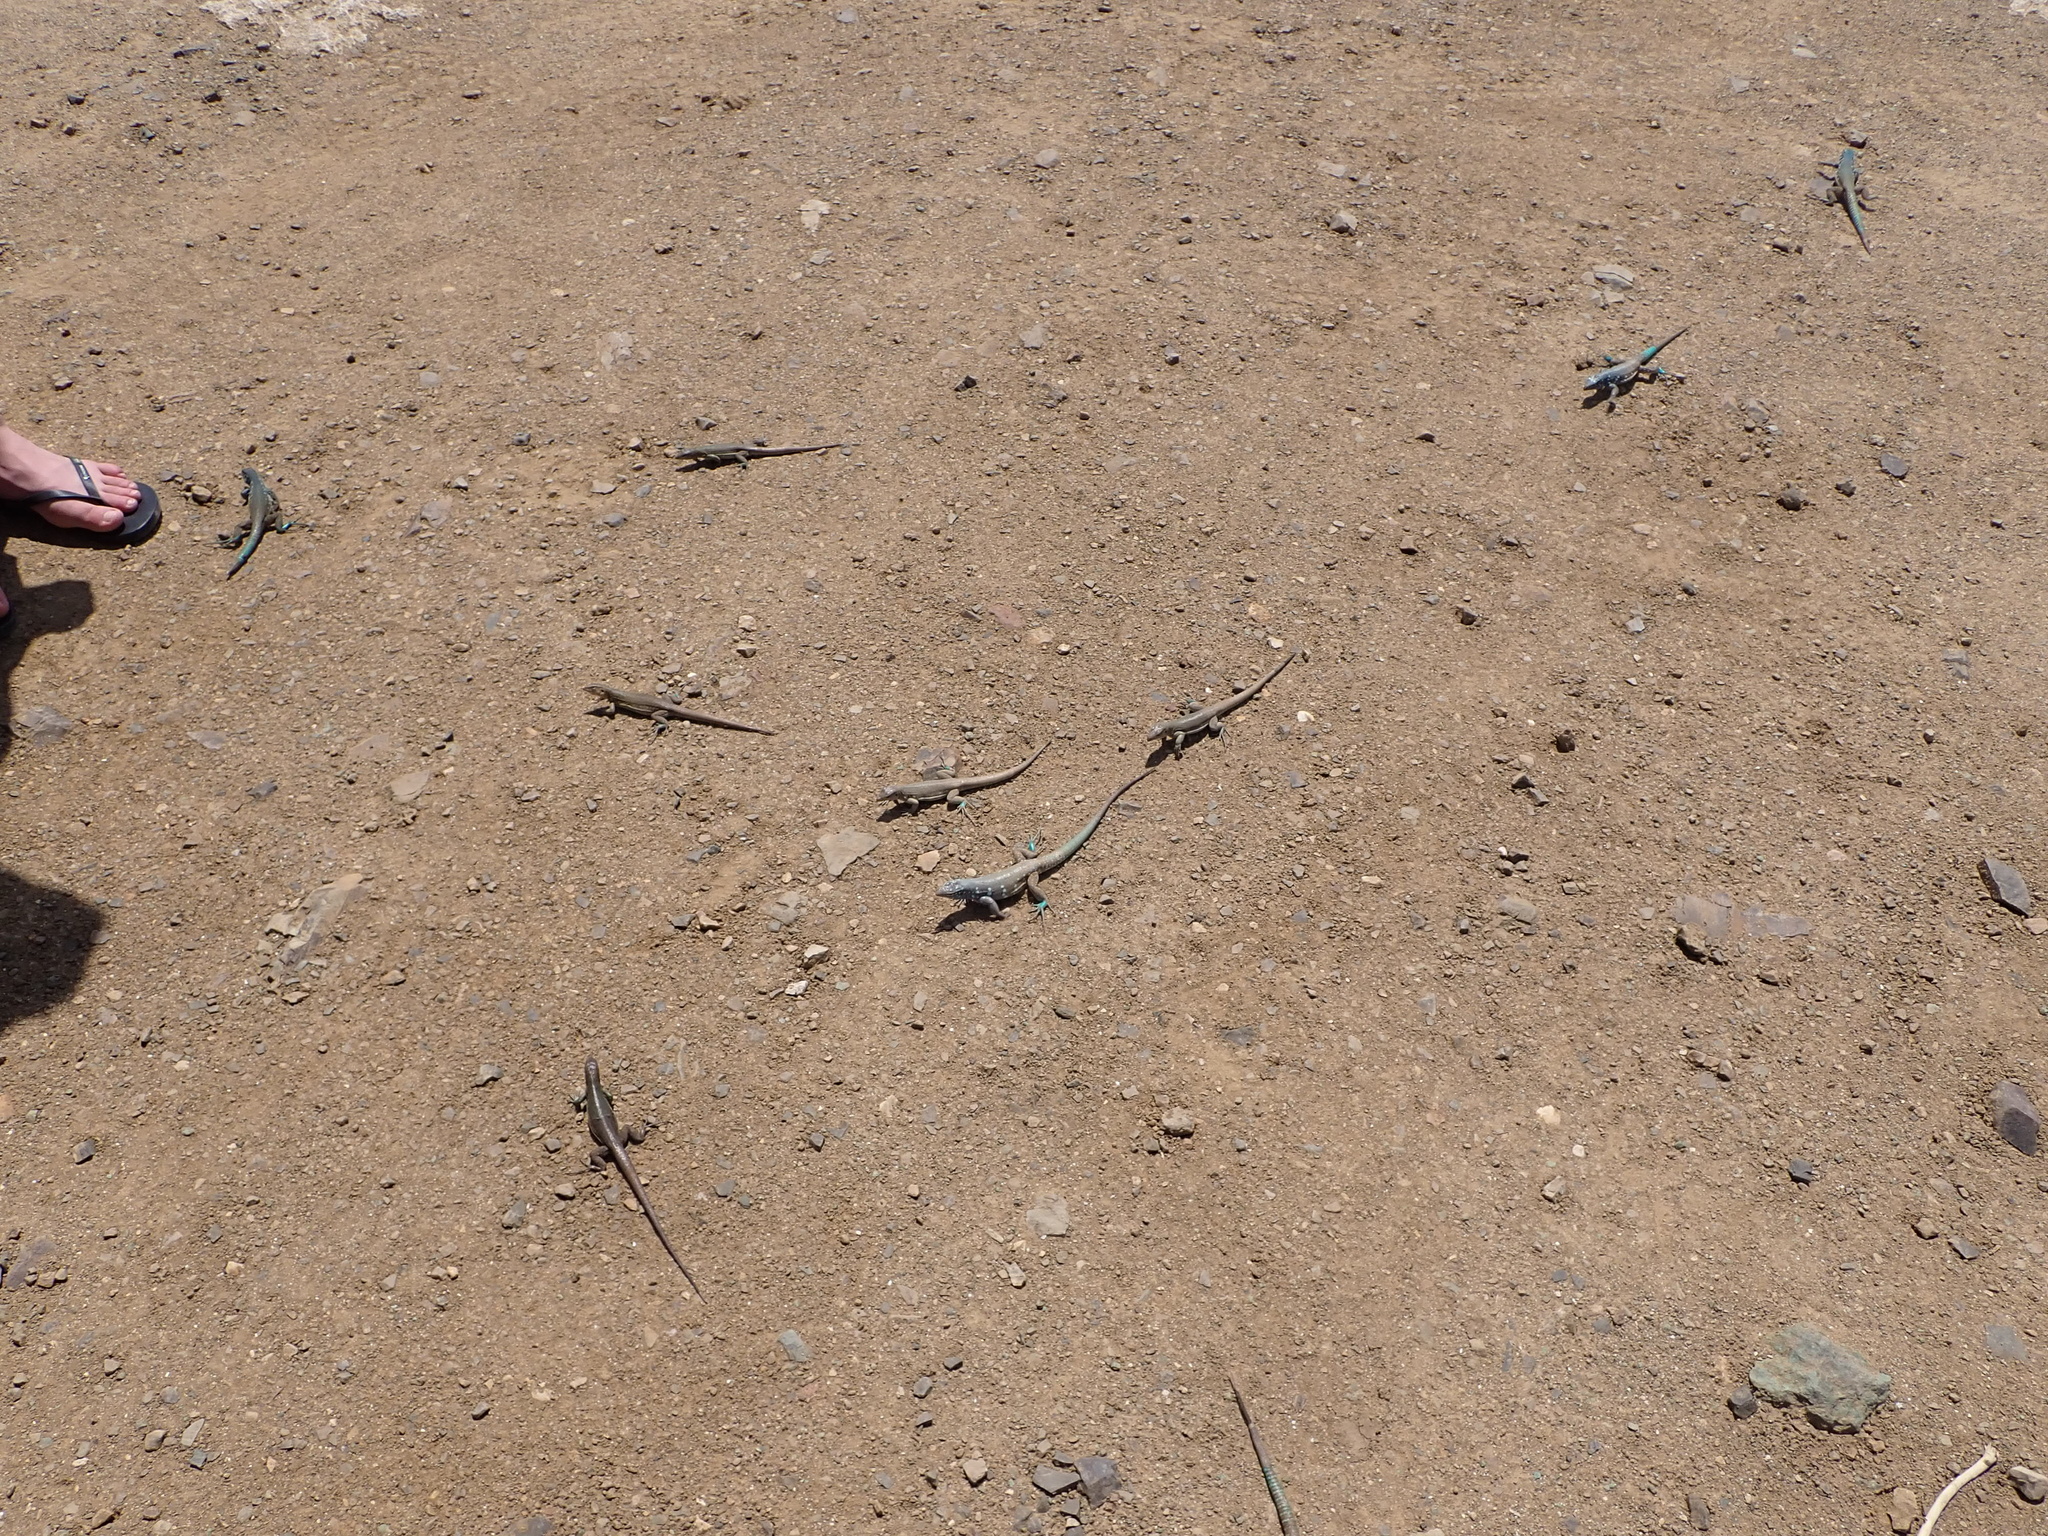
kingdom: Animalia
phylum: Chordata
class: Squamata
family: Teiidae
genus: Cnemidophorus
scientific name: Cnemidophorus ruthveni
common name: Bonaire whiptail
